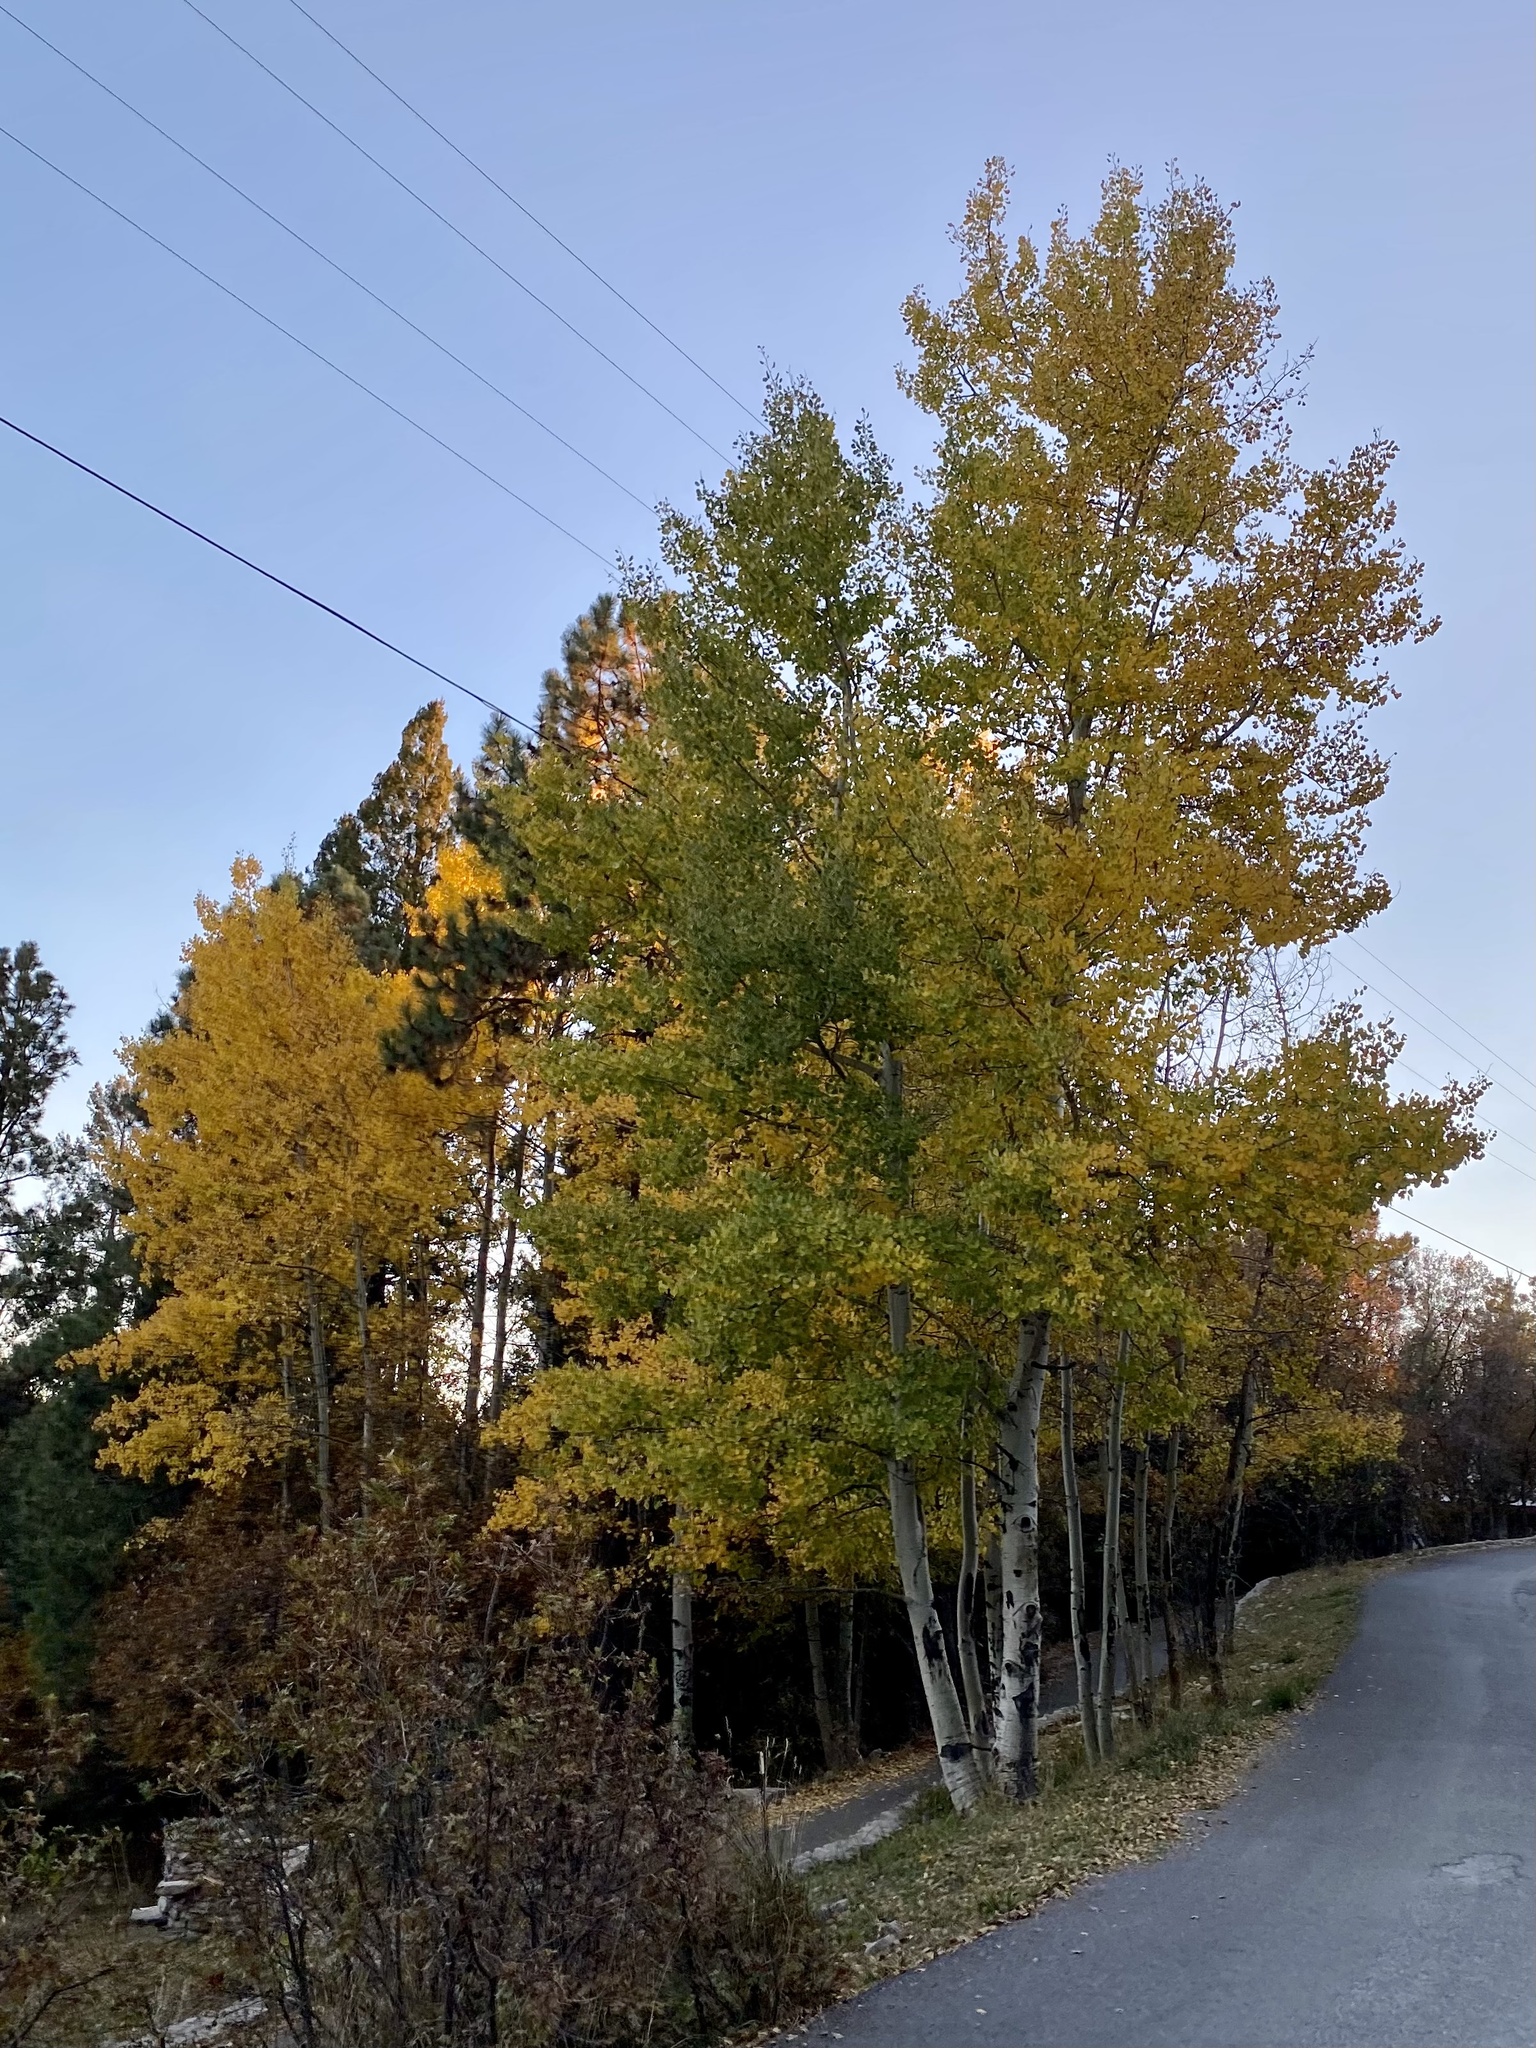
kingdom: Plantae
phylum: Tracheophyta
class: Magnoliopsida
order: Malpighiales
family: Salicaceae
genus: Populus
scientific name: Populus tremuloides
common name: Quaking aspen
